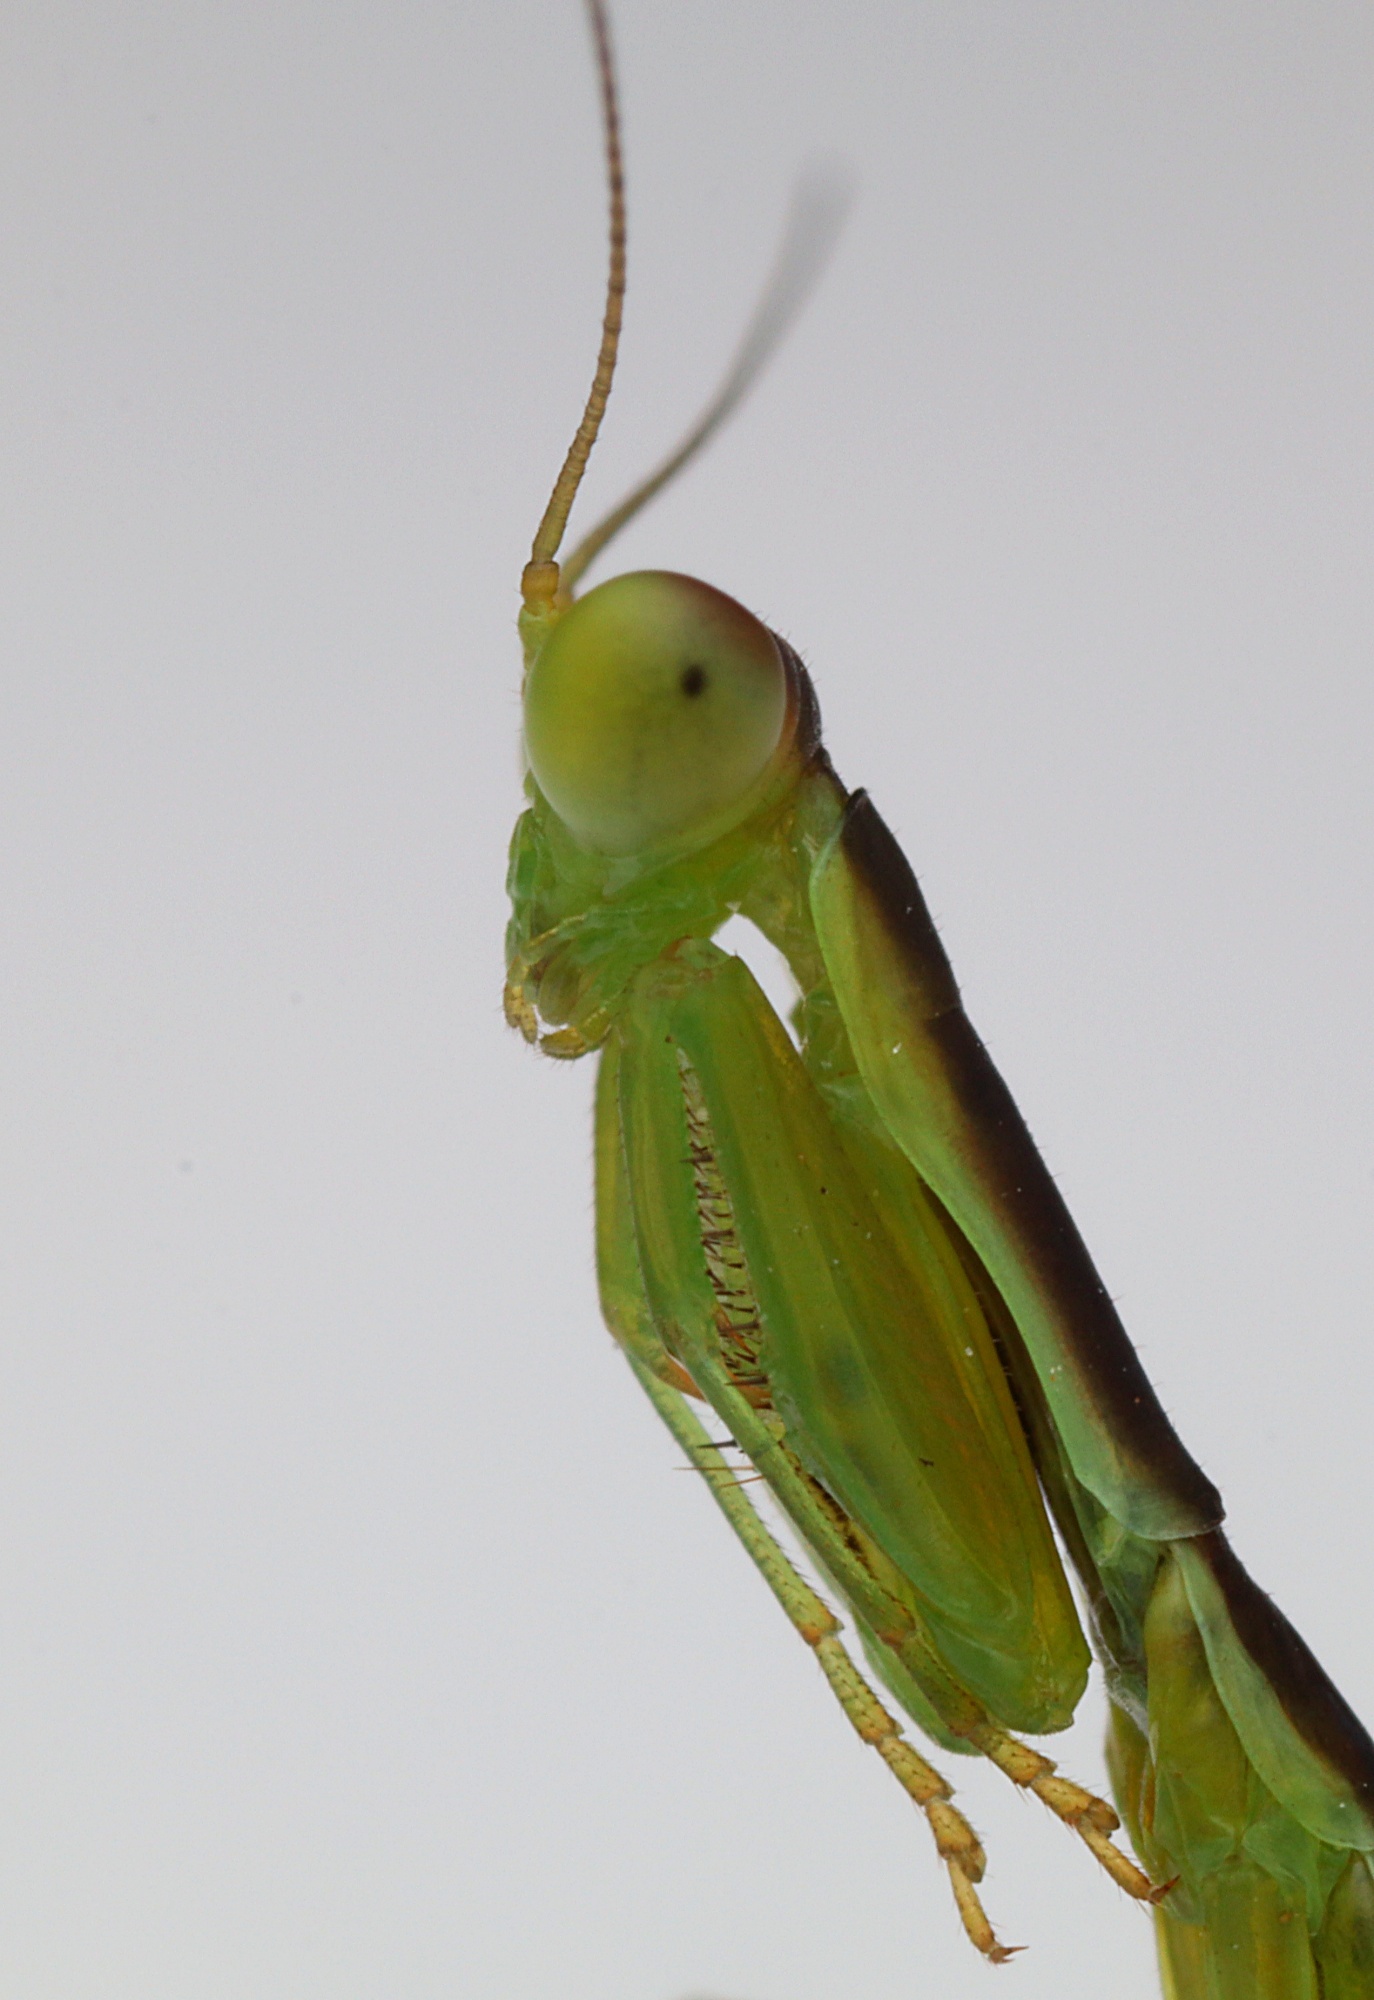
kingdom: Animalia
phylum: Arthropoda
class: Insecta
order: Mantodea
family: Mantidae
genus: Orthodera
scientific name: Orthodera novaezealandiae
